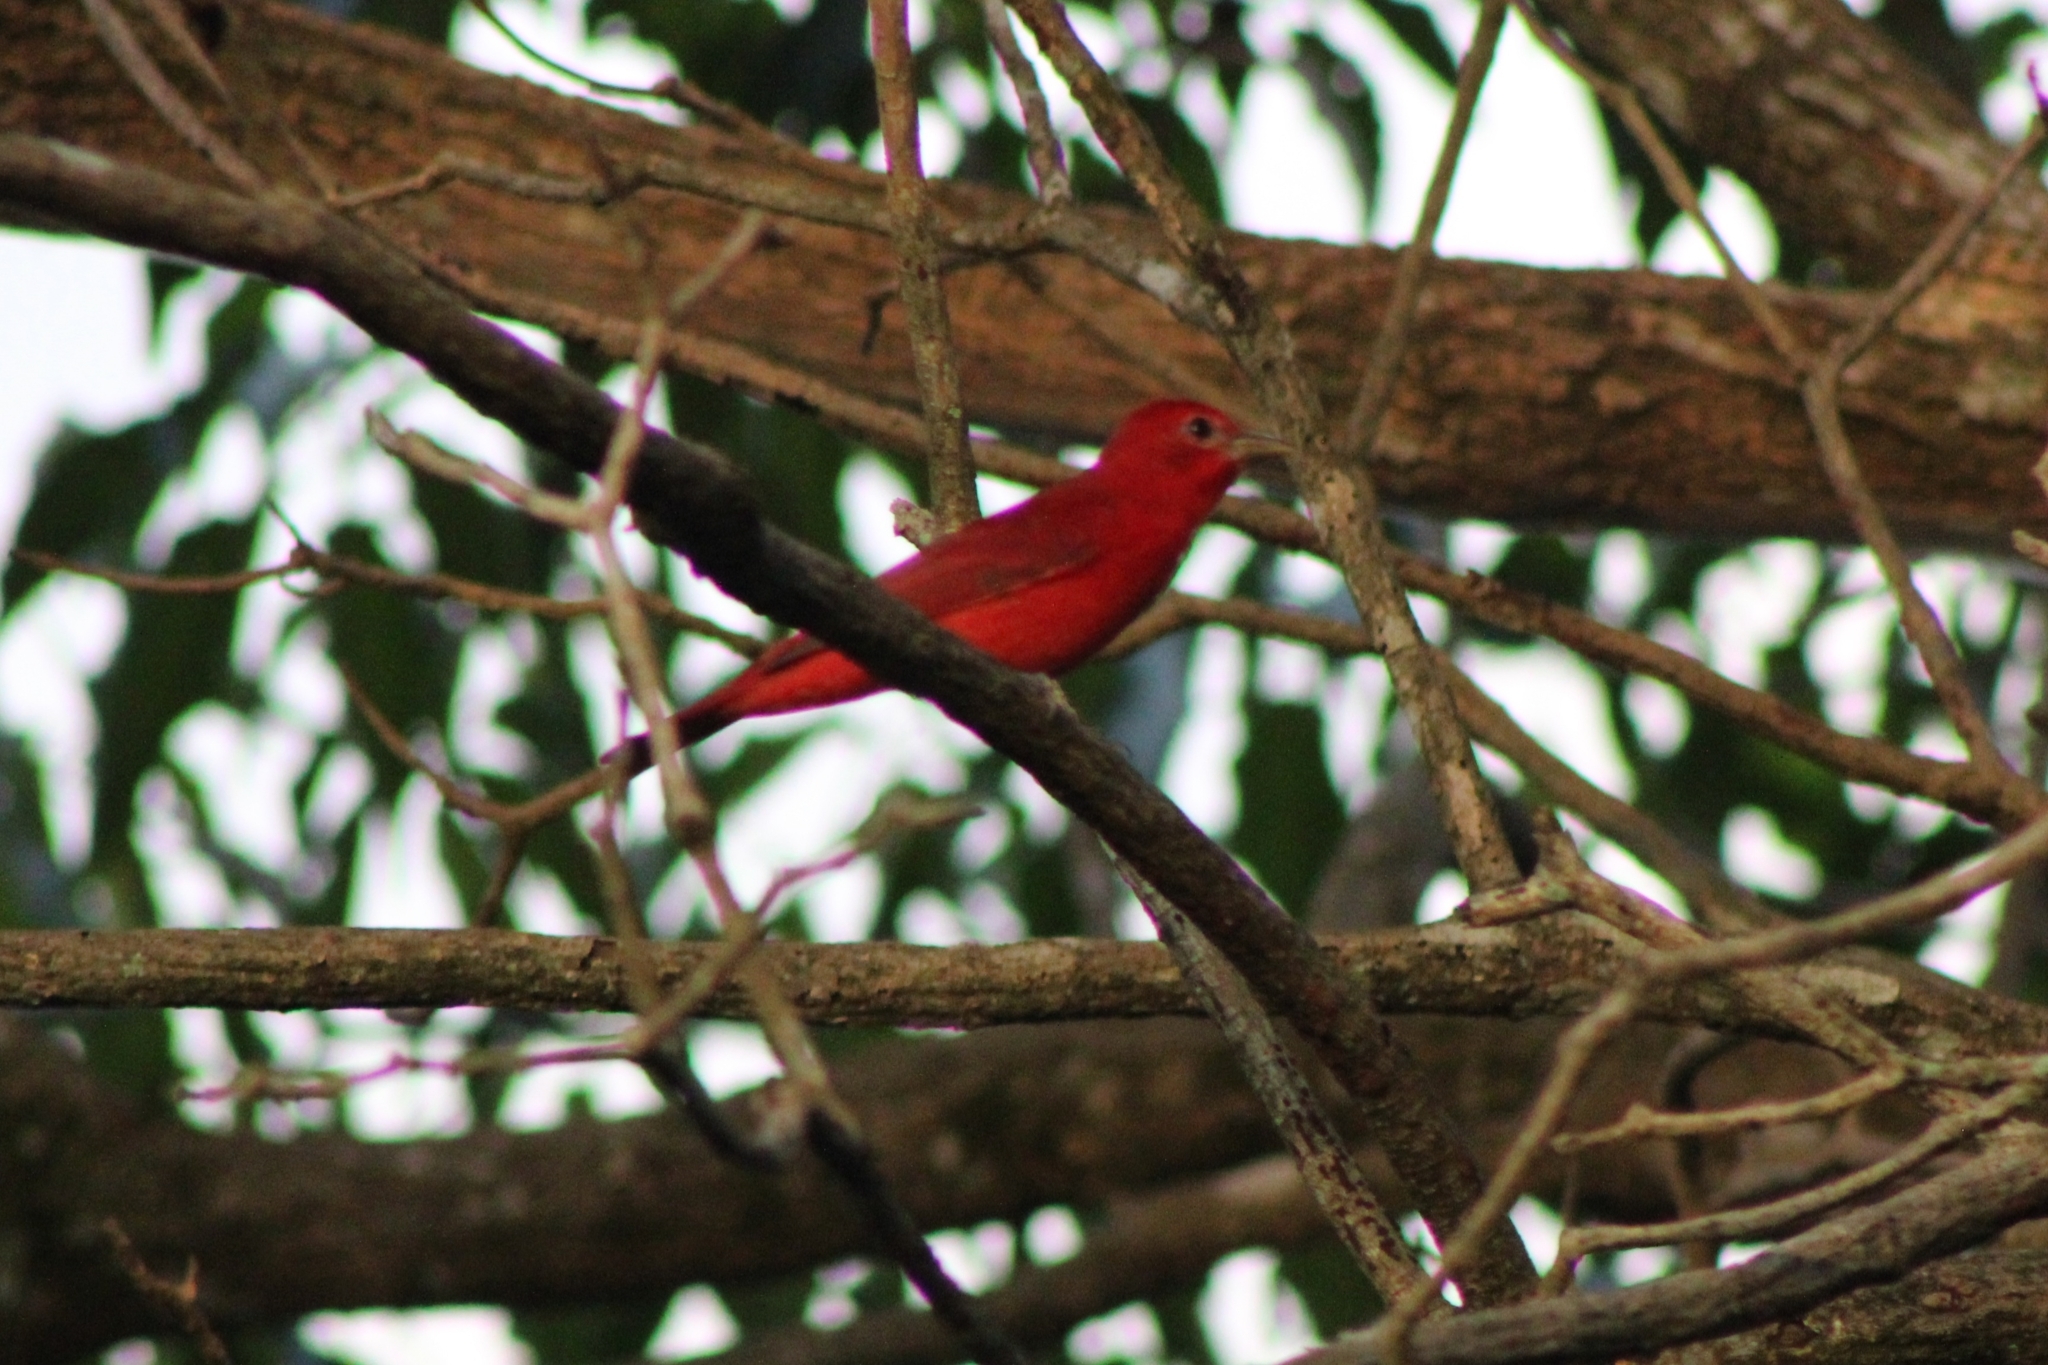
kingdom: Animalia
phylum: Chordata
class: Aves
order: Passeriformes
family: Cardinalidae
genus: Piranga
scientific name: Piranga rubra
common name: Summer tanager
